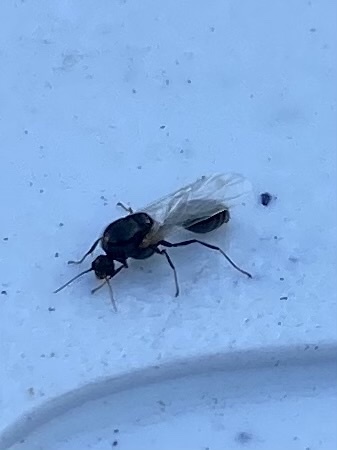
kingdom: Animalia
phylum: Arthropoda
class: Insecta
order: Hymenoptera
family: Formicidae
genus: Solenopsis
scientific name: Solenopsis invicta
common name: Red imported fire ant
